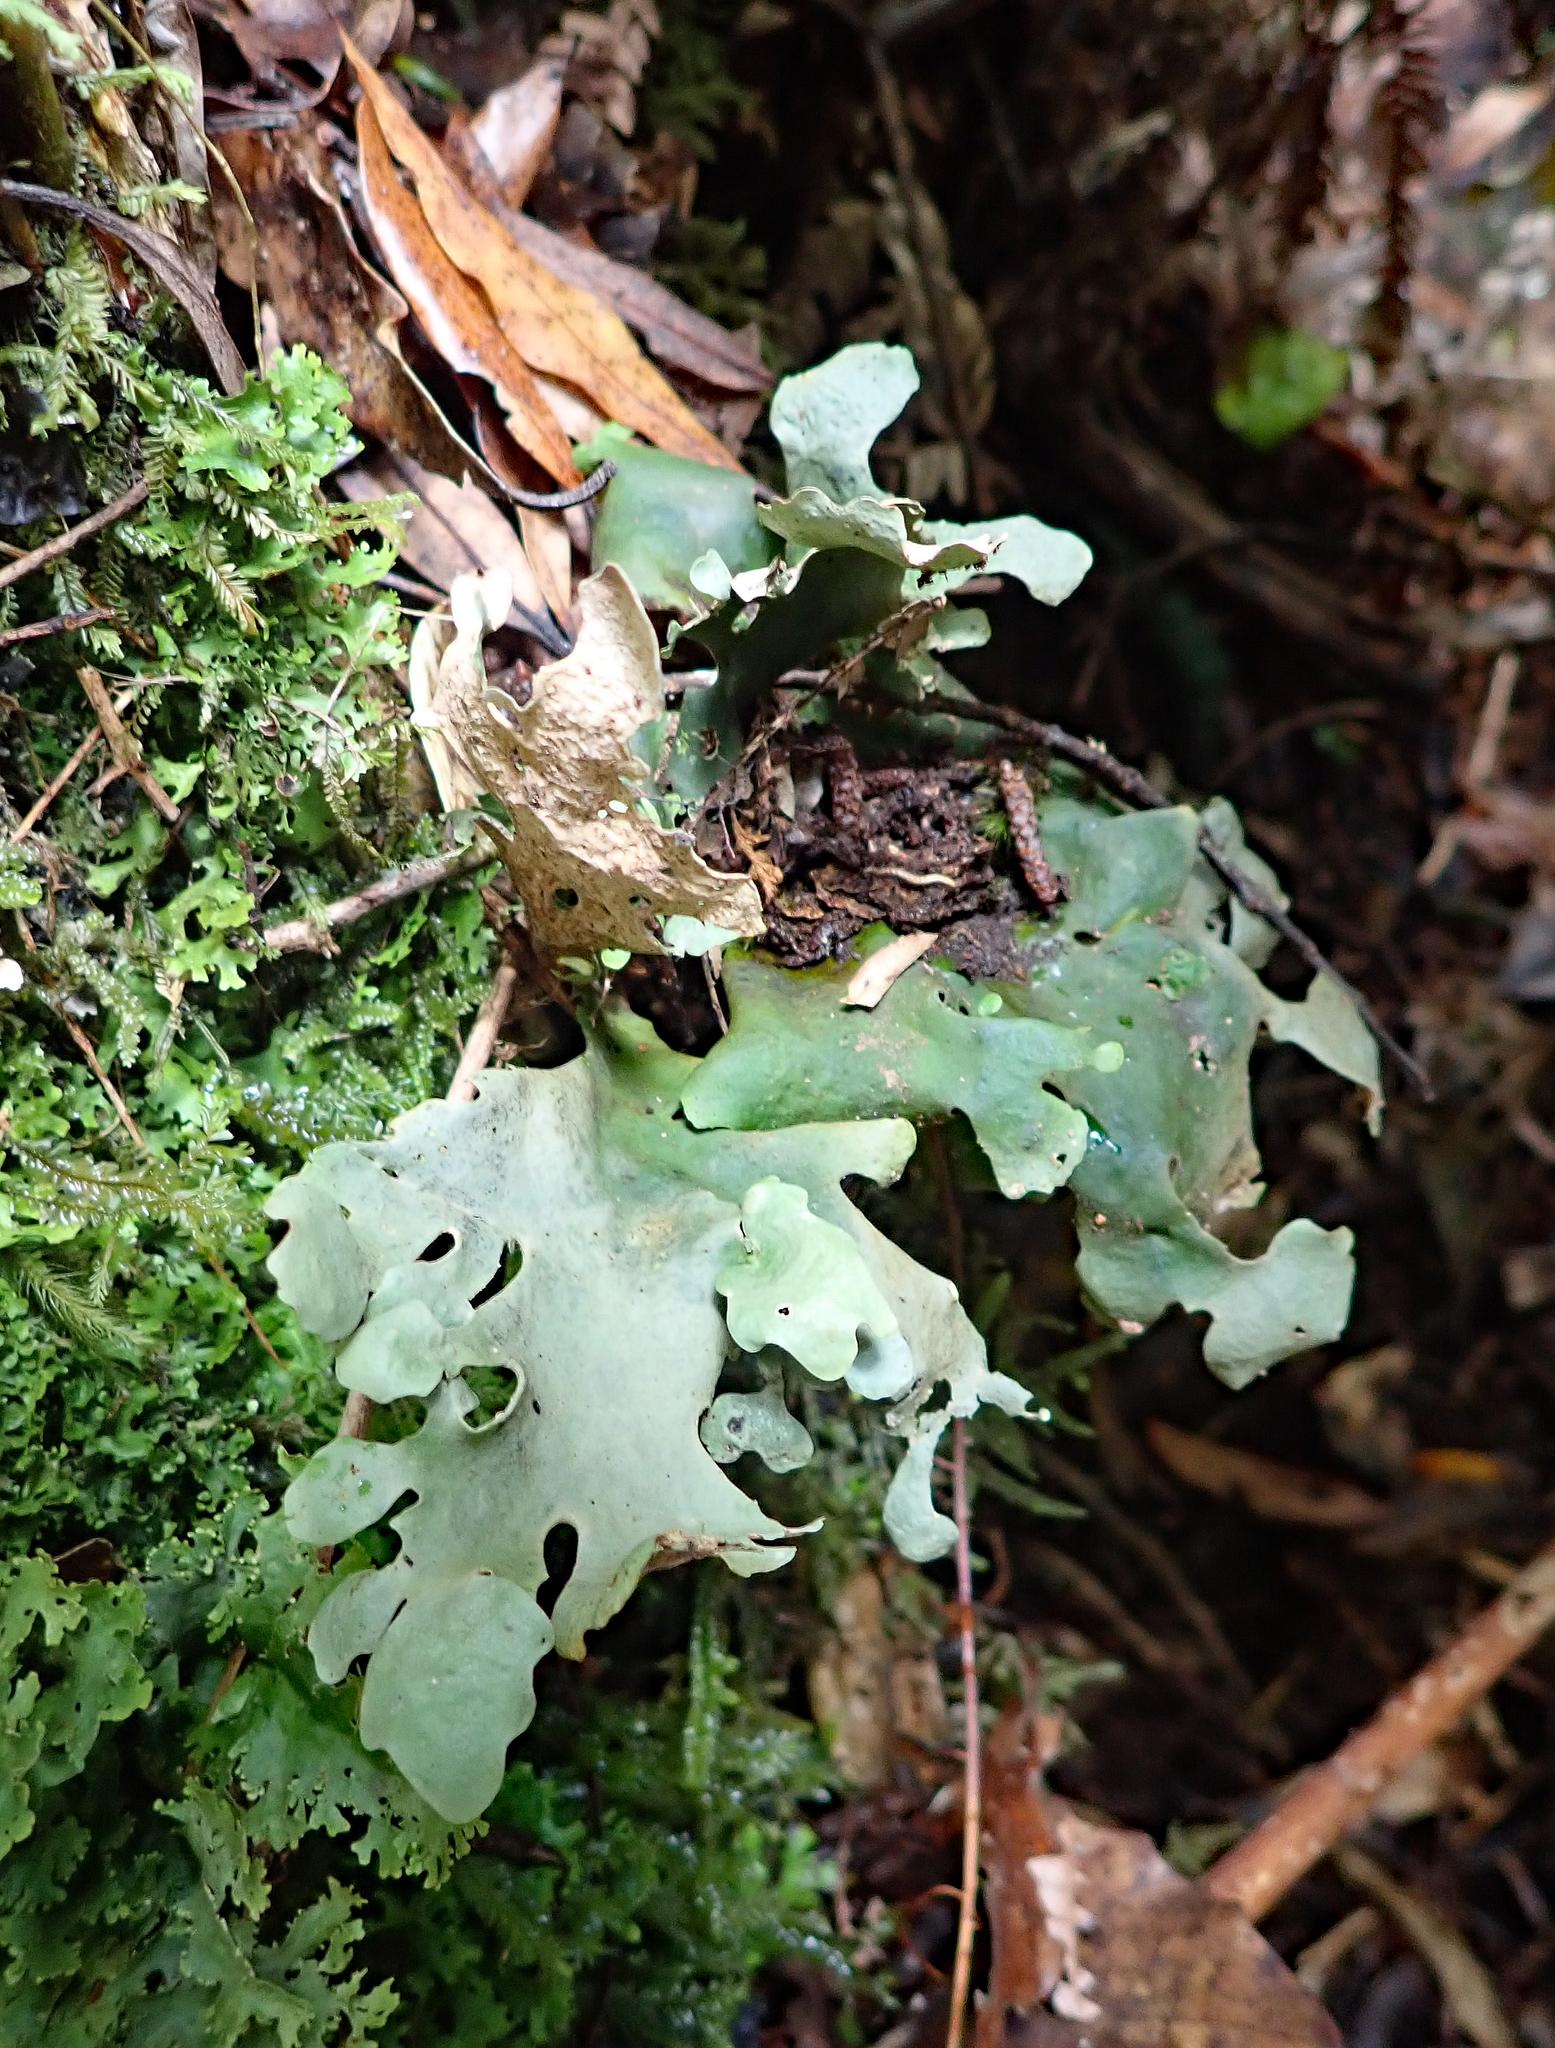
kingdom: Fungi
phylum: Ascomycota
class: Lecanoromycetes
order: Peltigerales
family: Lobariaceae
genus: Sticta
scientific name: Sticta latifrons
